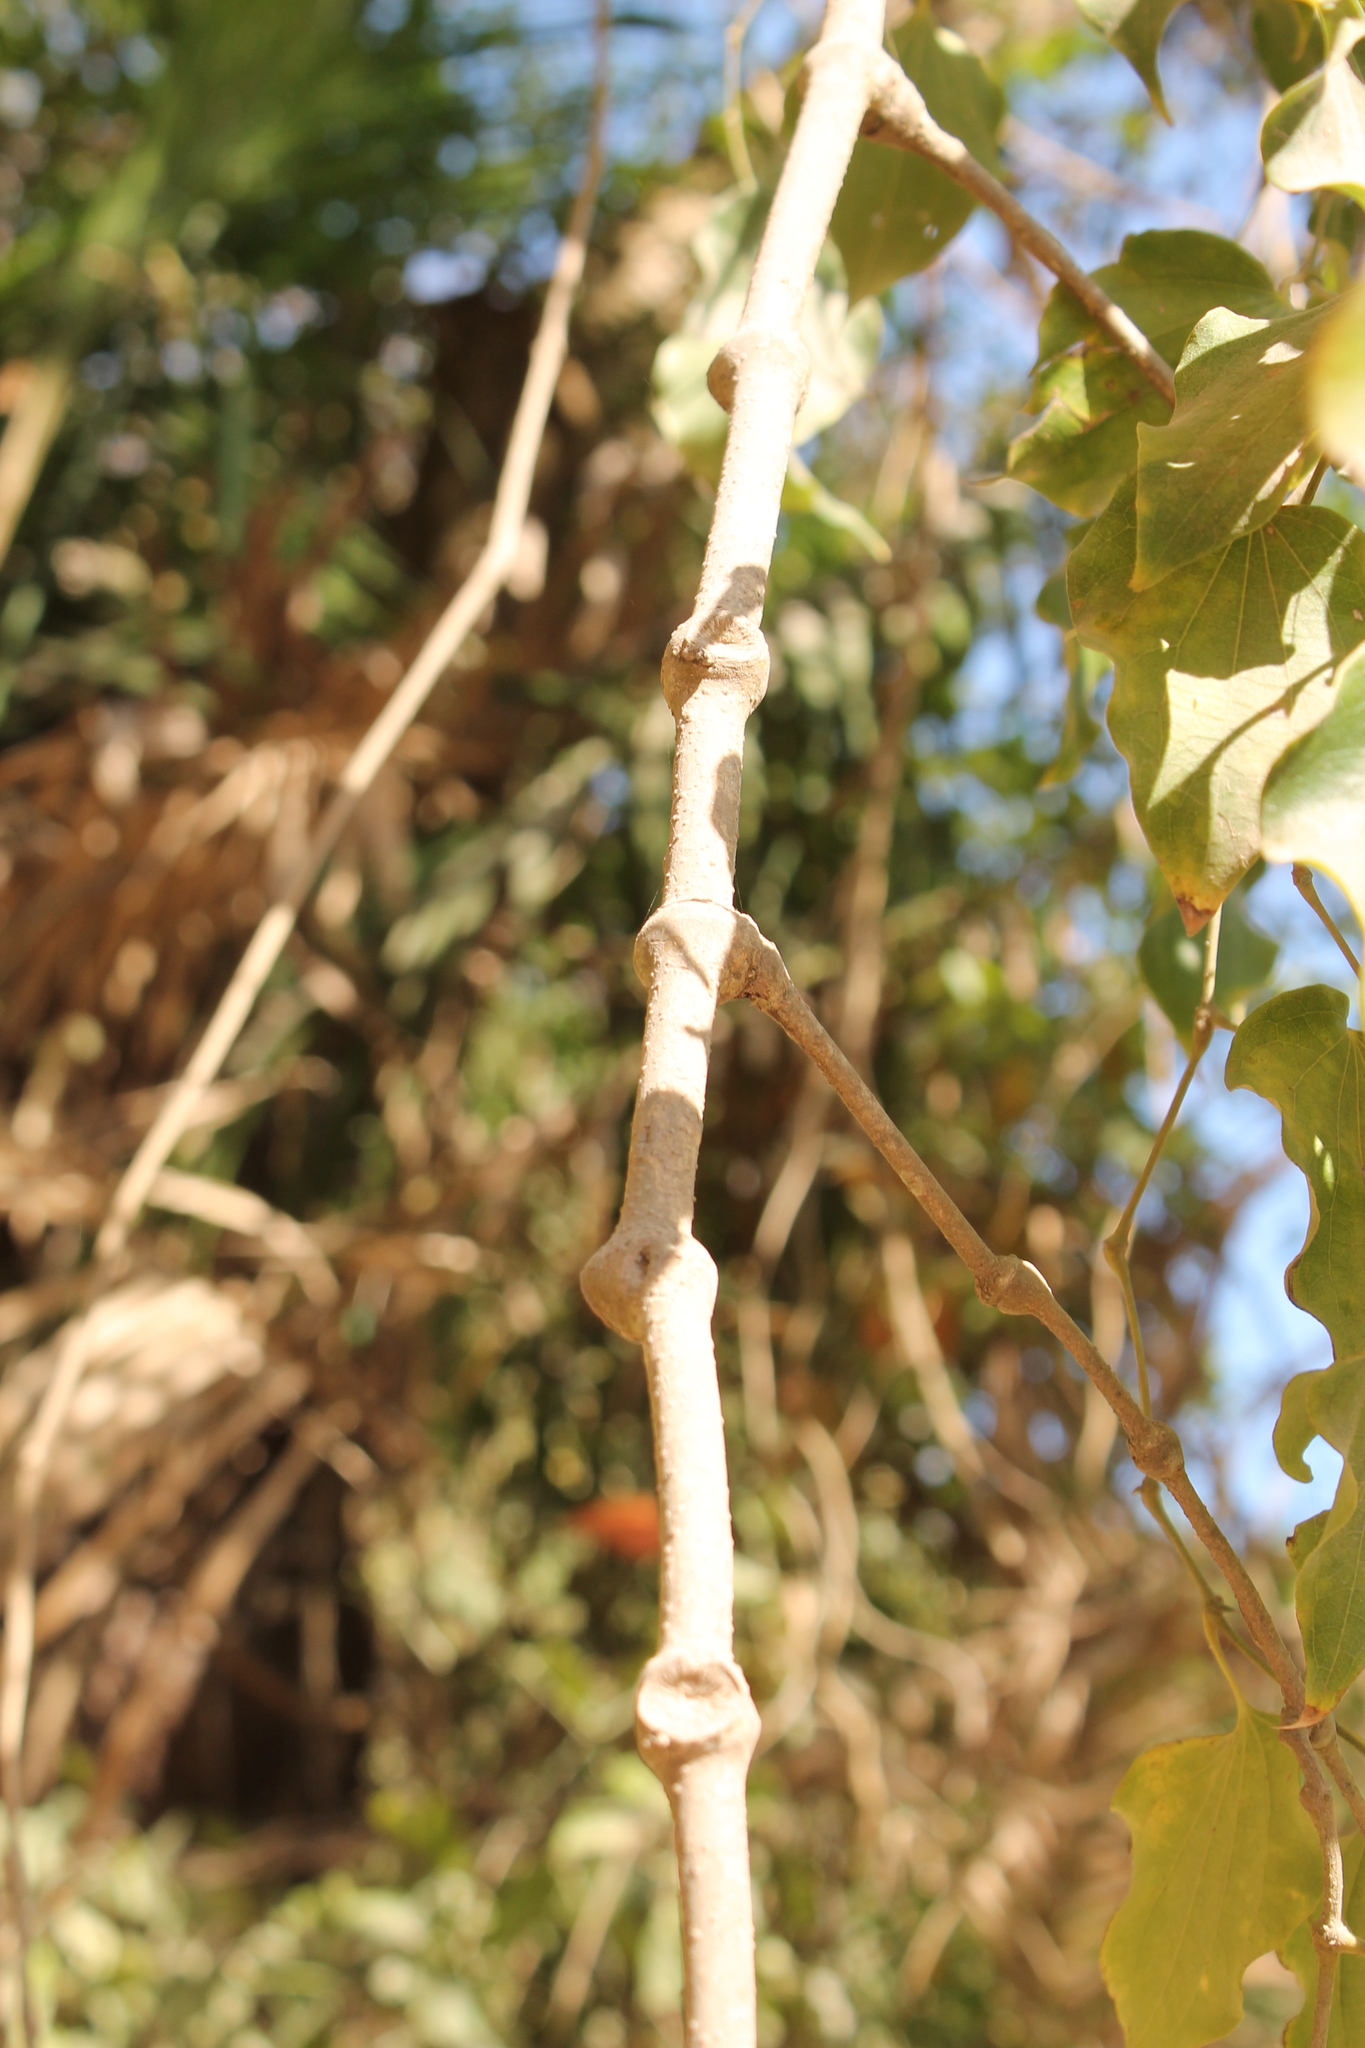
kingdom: Plantae
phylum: Tracheophyta
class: Magnoliopsida
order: Piperales
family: Piperaceae
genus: Piper
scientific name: Piper michelianum
